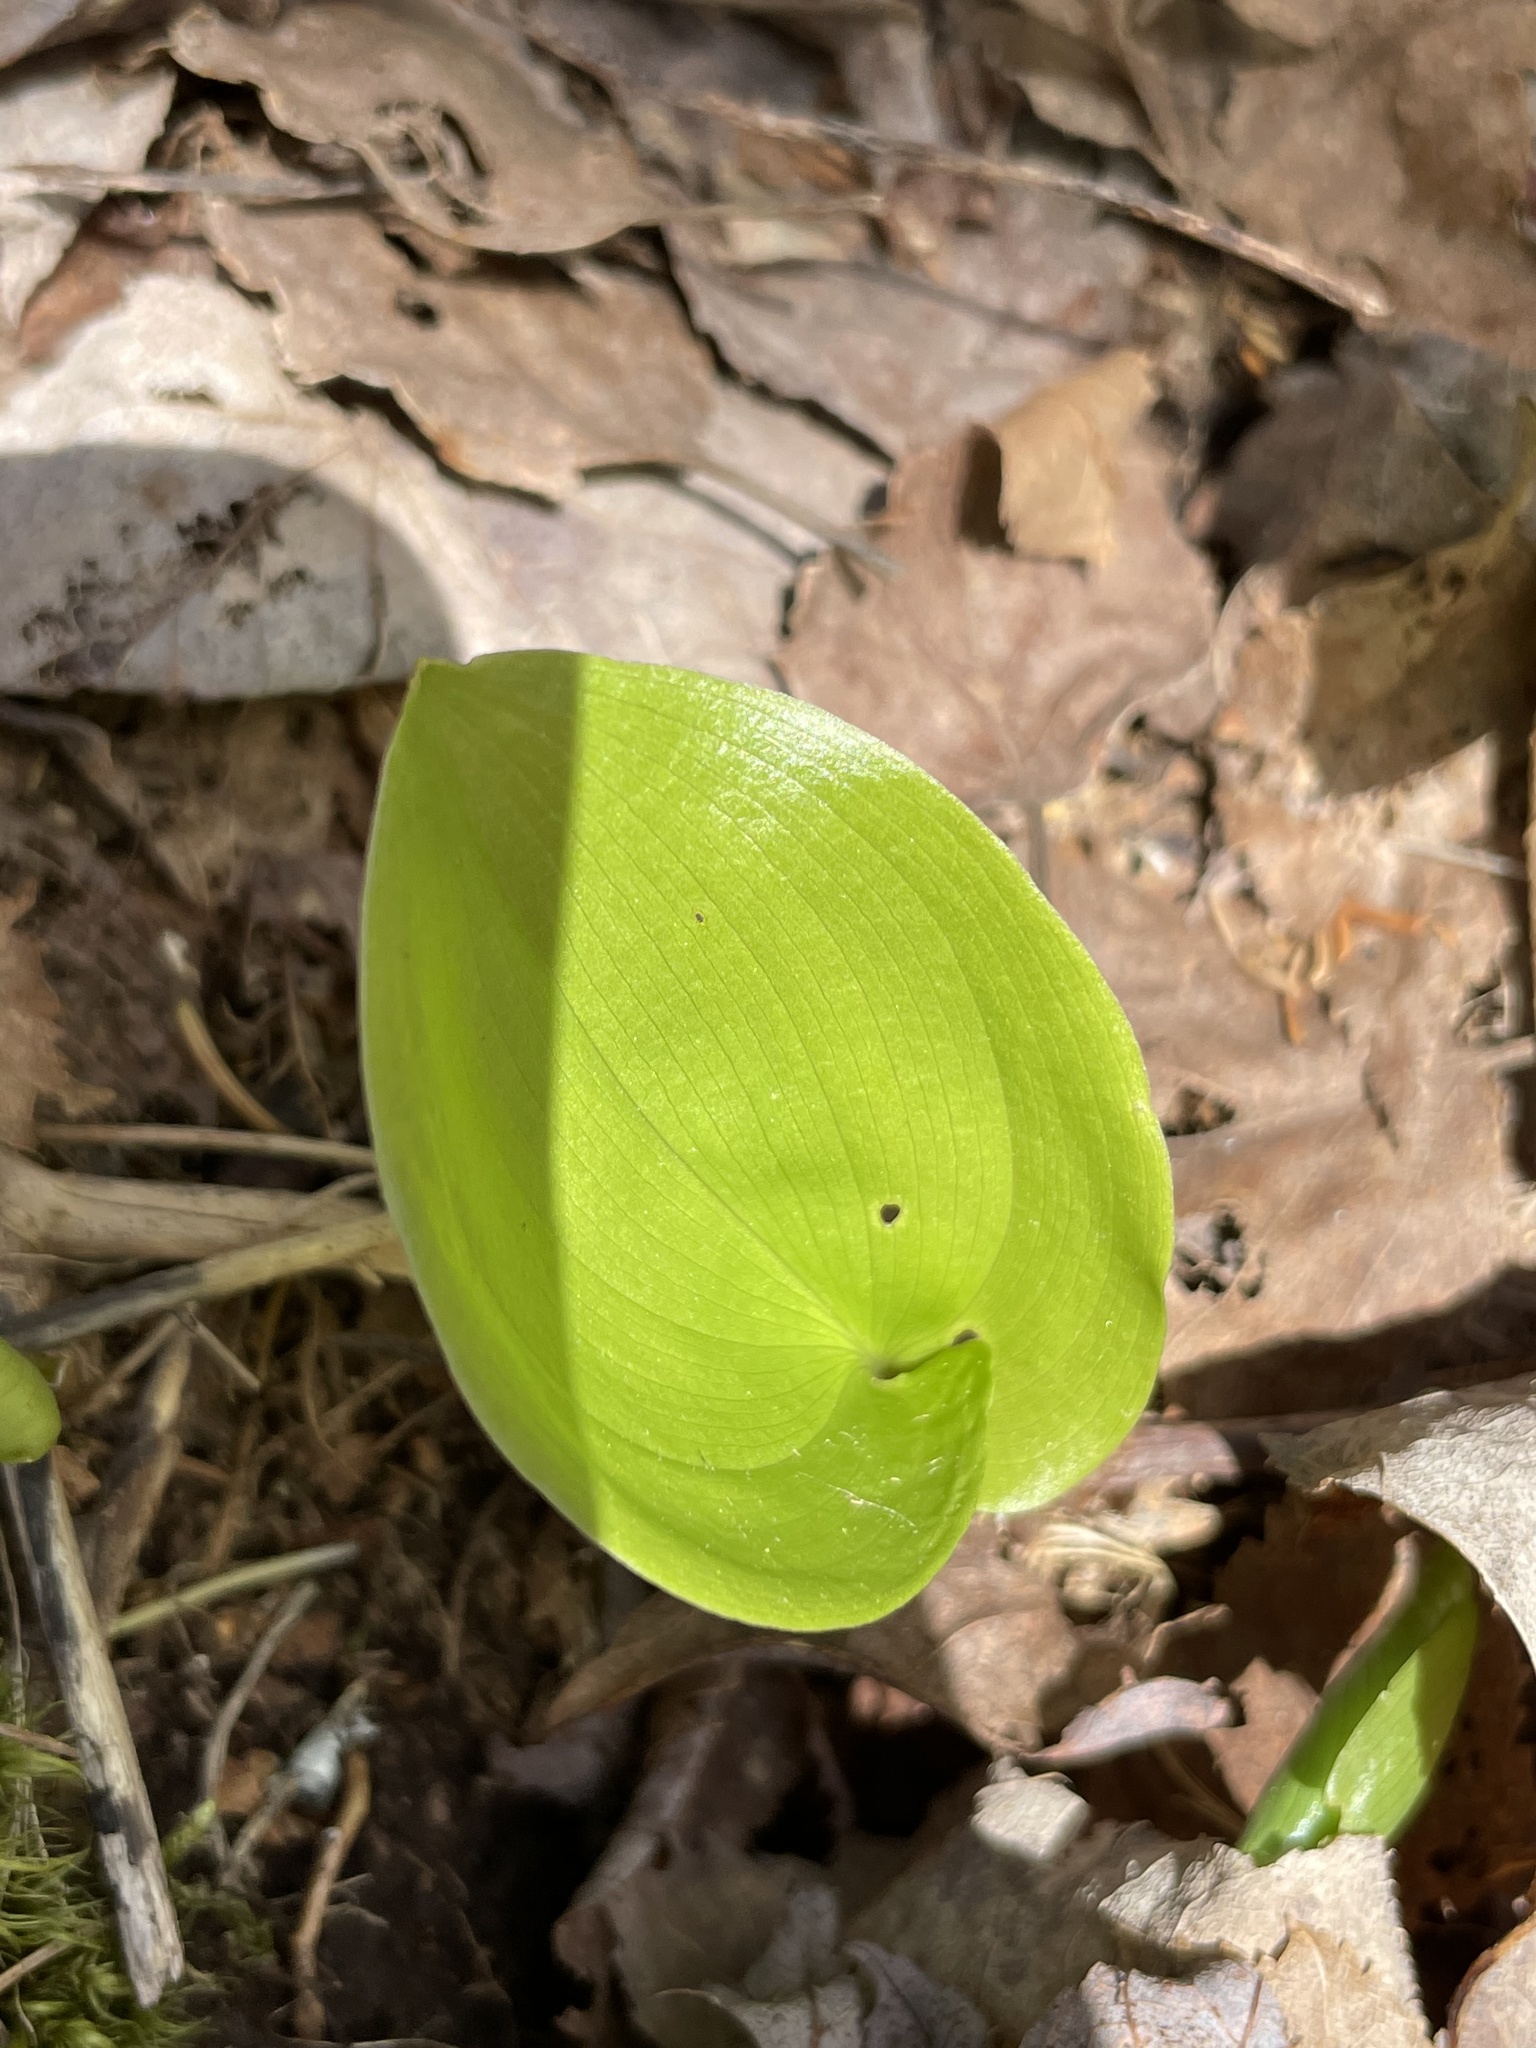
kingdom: Plantae
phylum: Tracheophyta
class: Liliopsida
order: Asparagales
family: Asparagaceae
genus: Maianthemum
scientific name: Maianthemum canadense
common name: False lily-of-the-valley
